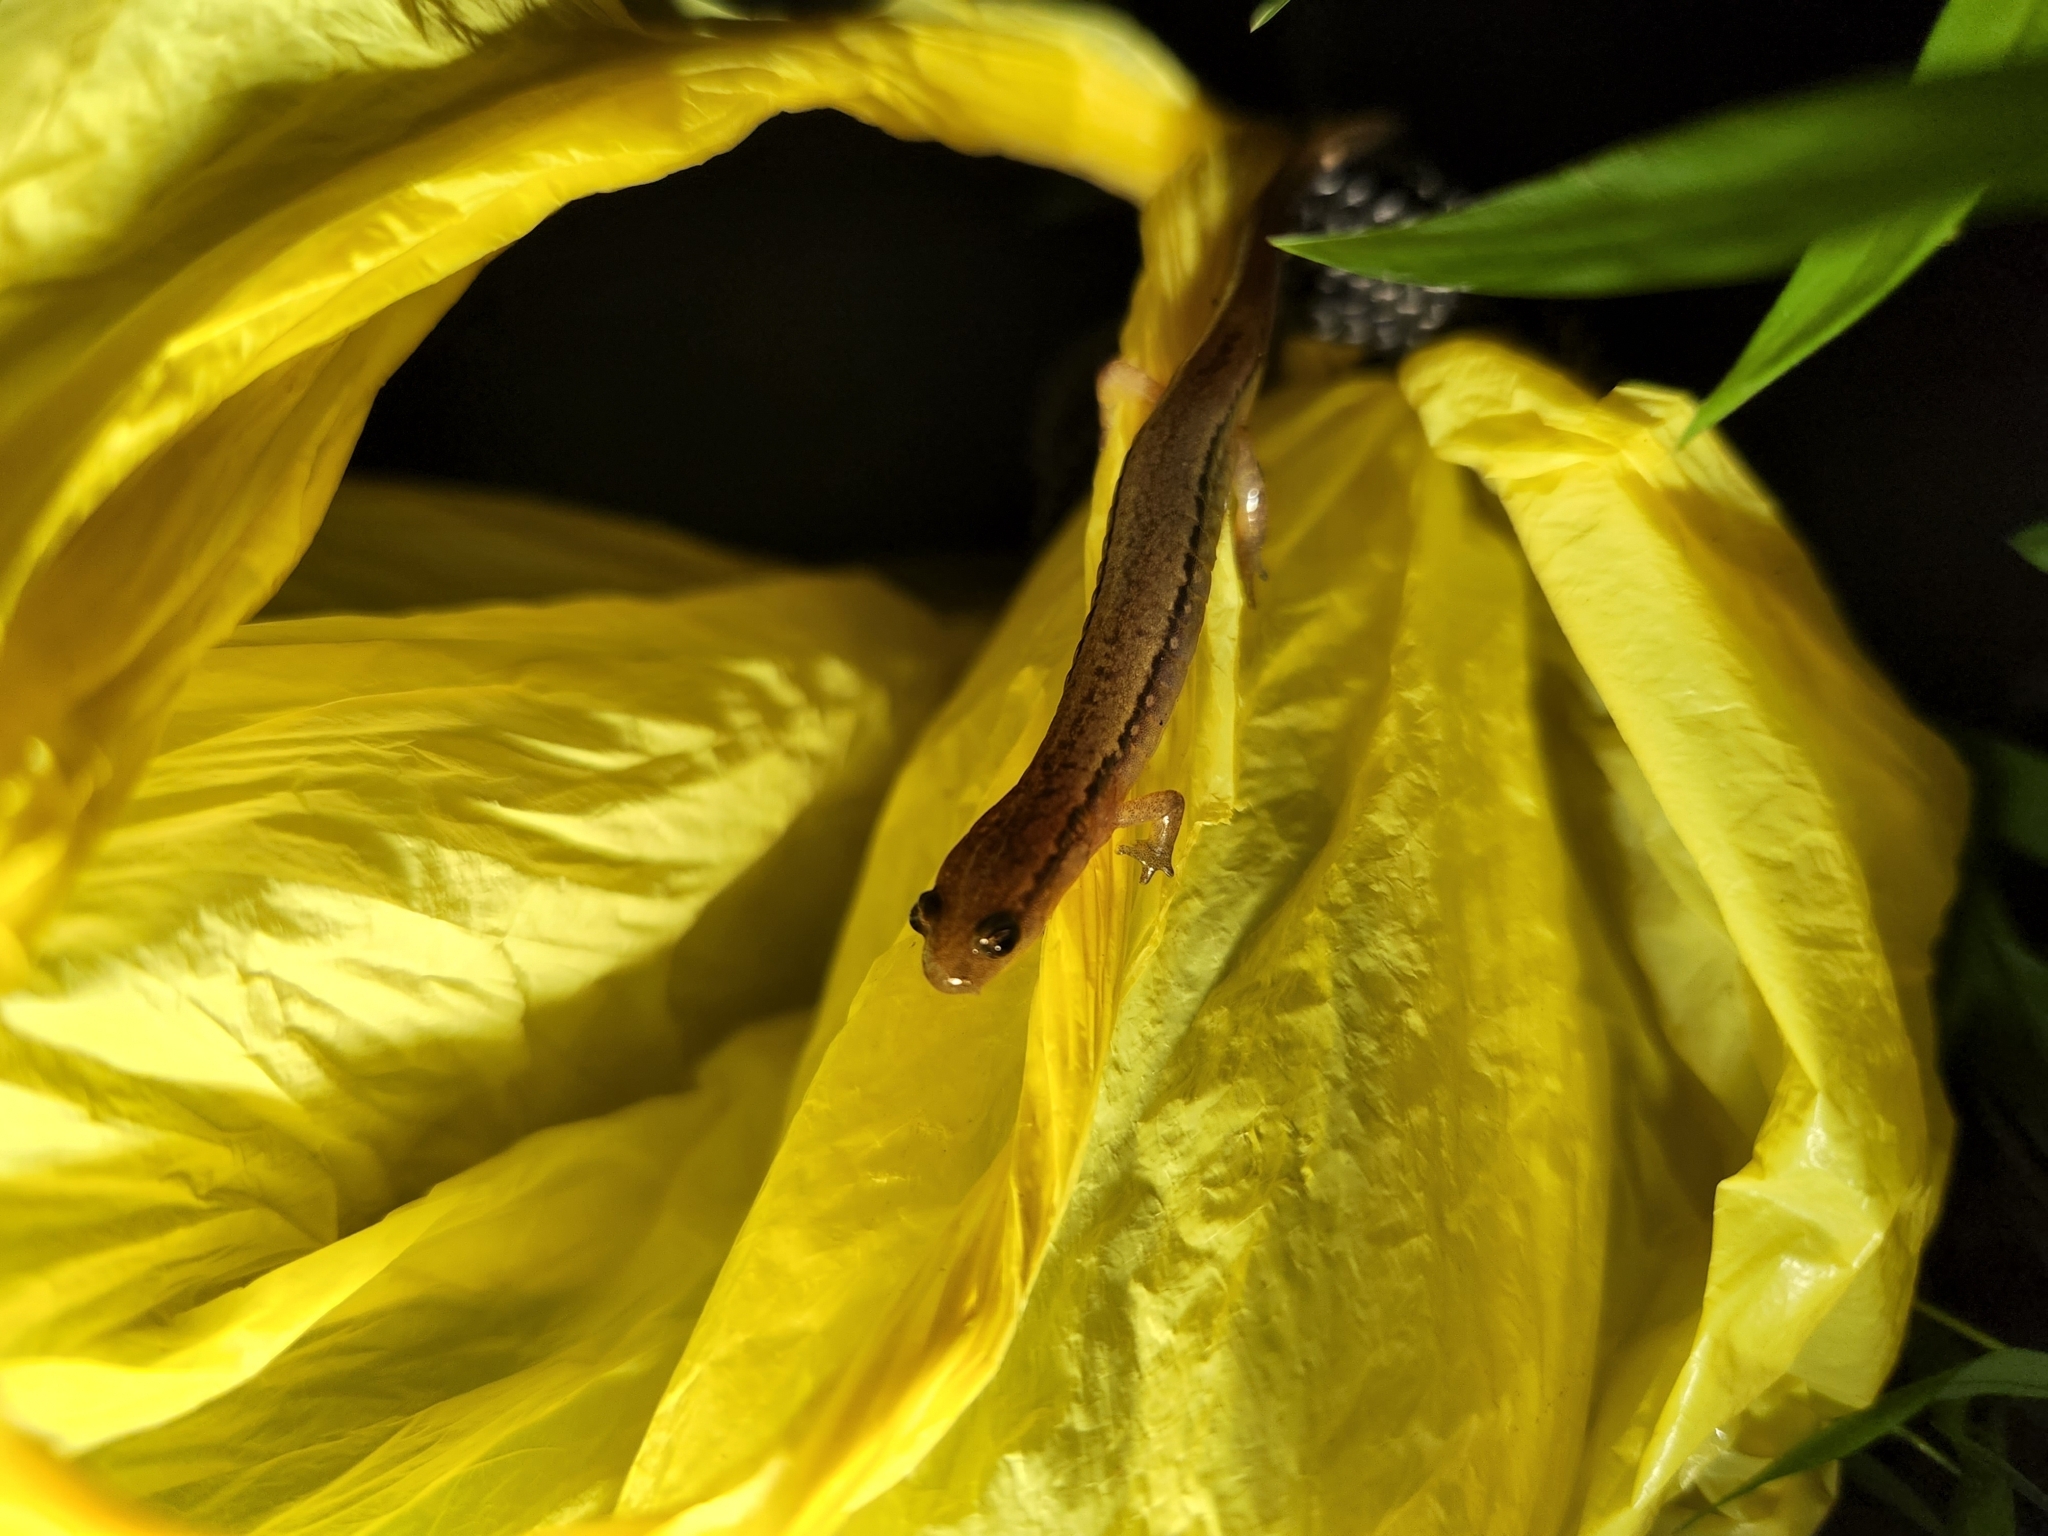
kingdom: Animalia
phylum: Chordata
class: Amphibia
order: Caudata
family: Plethodontidae
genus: Eurycea
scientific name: Eurycea bislineata
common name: Northern two-lined salamander
